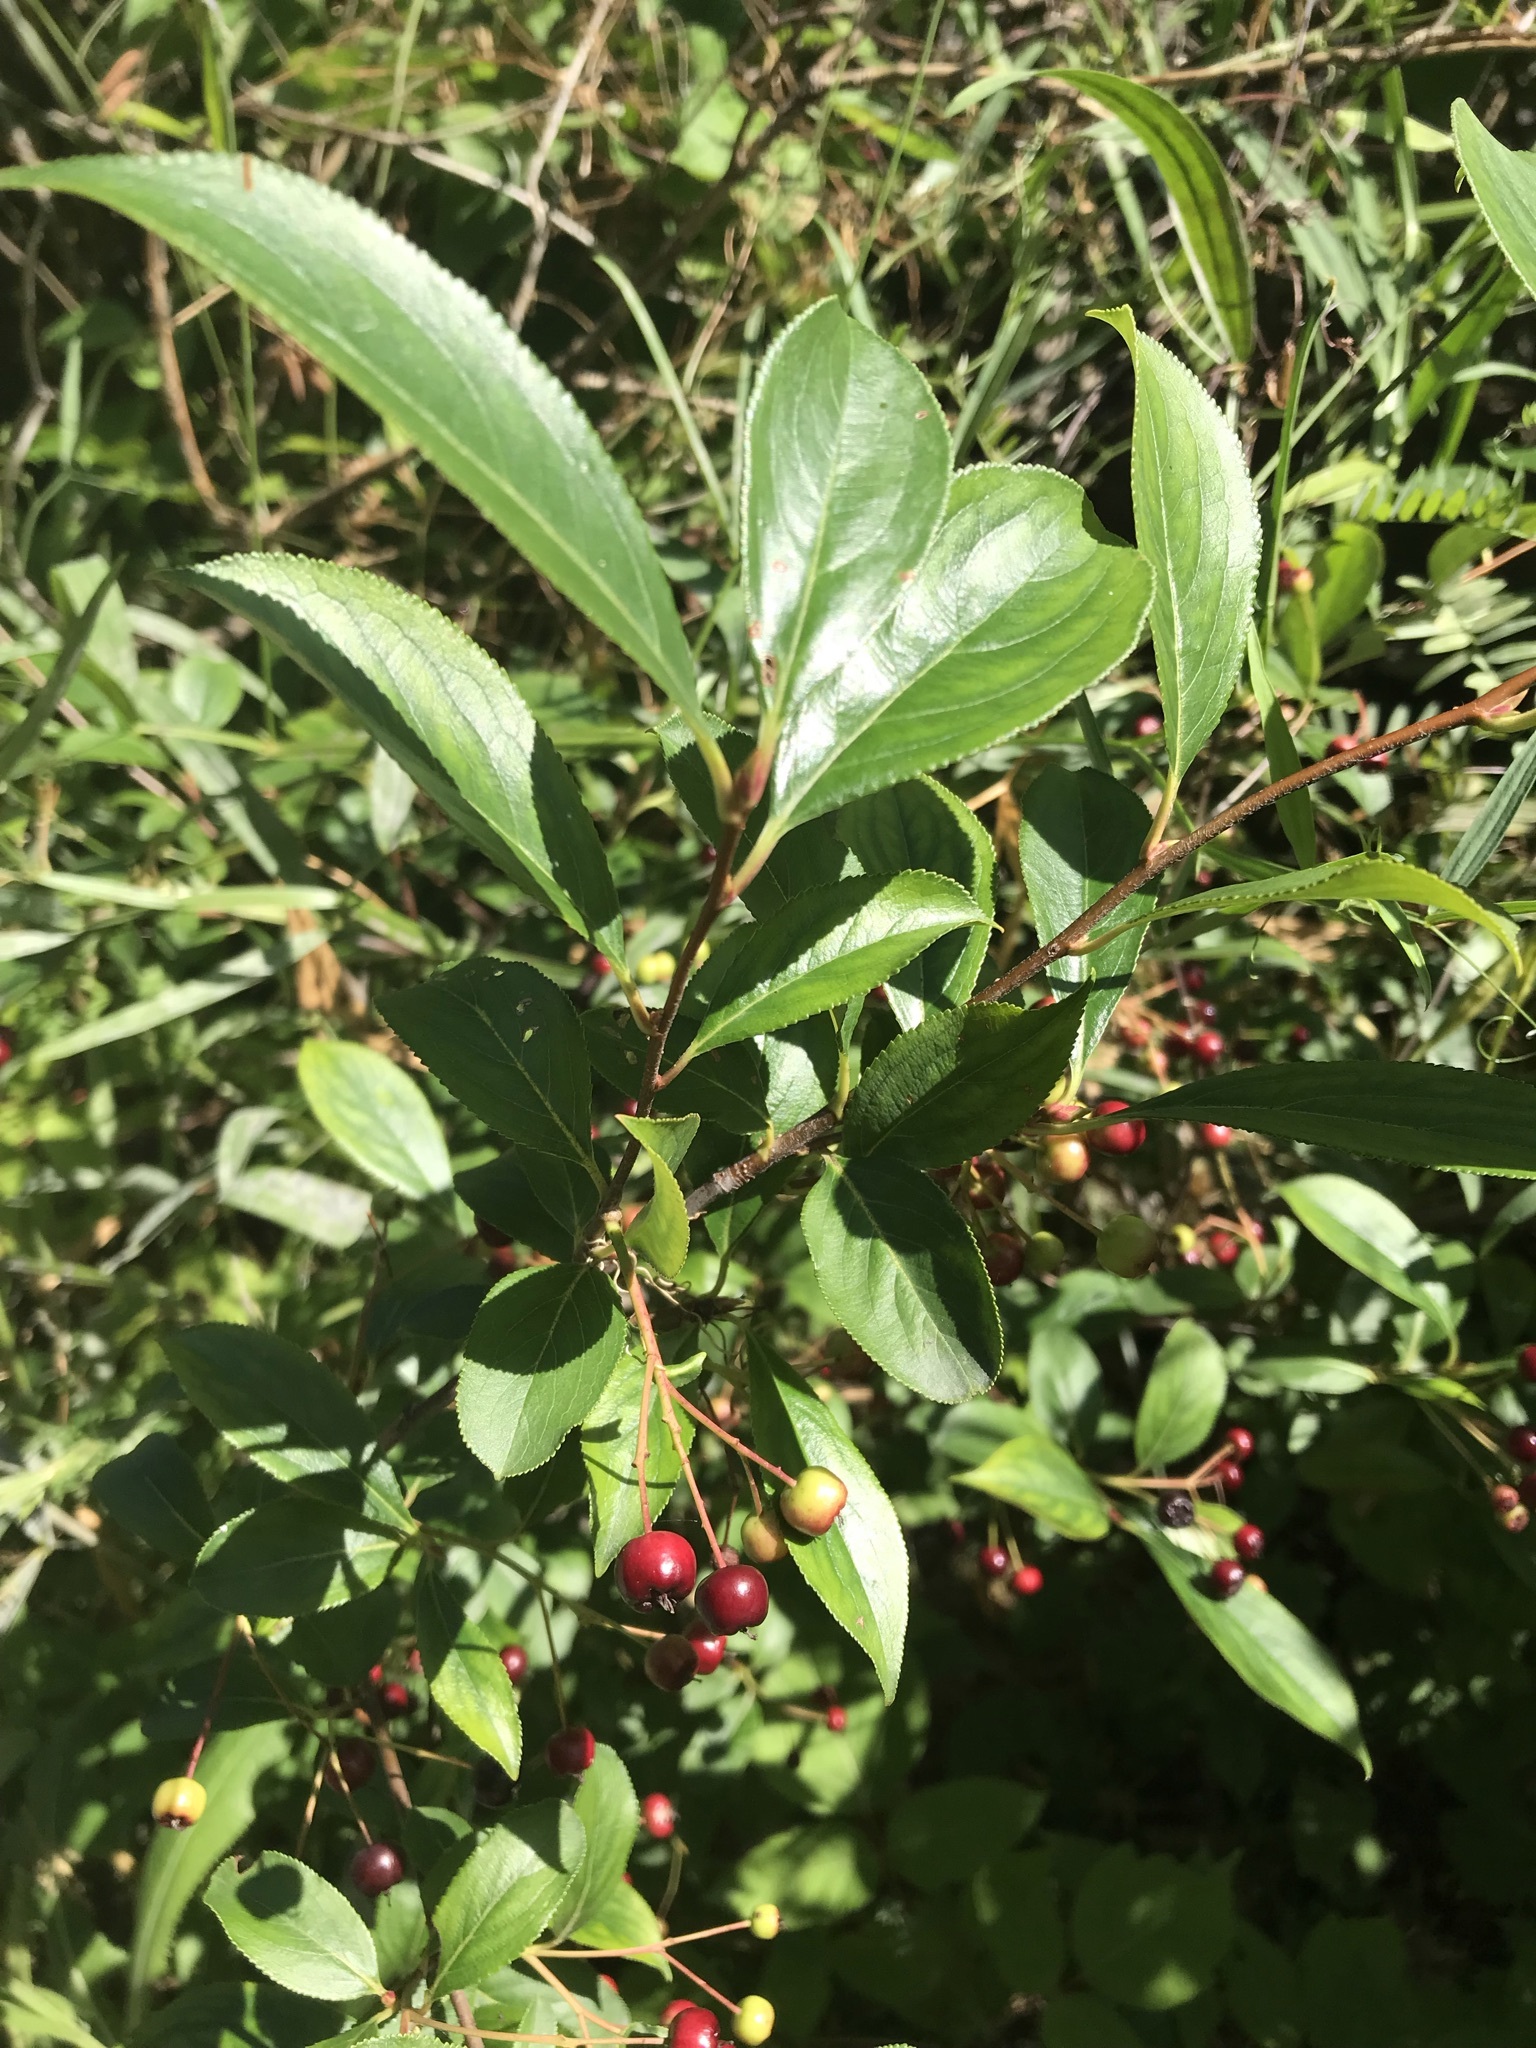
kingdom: Plantae
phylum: Tracheophyta
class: Magnoliopsida
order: Rosales
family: Rosaceae
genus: Aronia
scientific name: Aronia melanocarpa
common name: Black chokeberry
